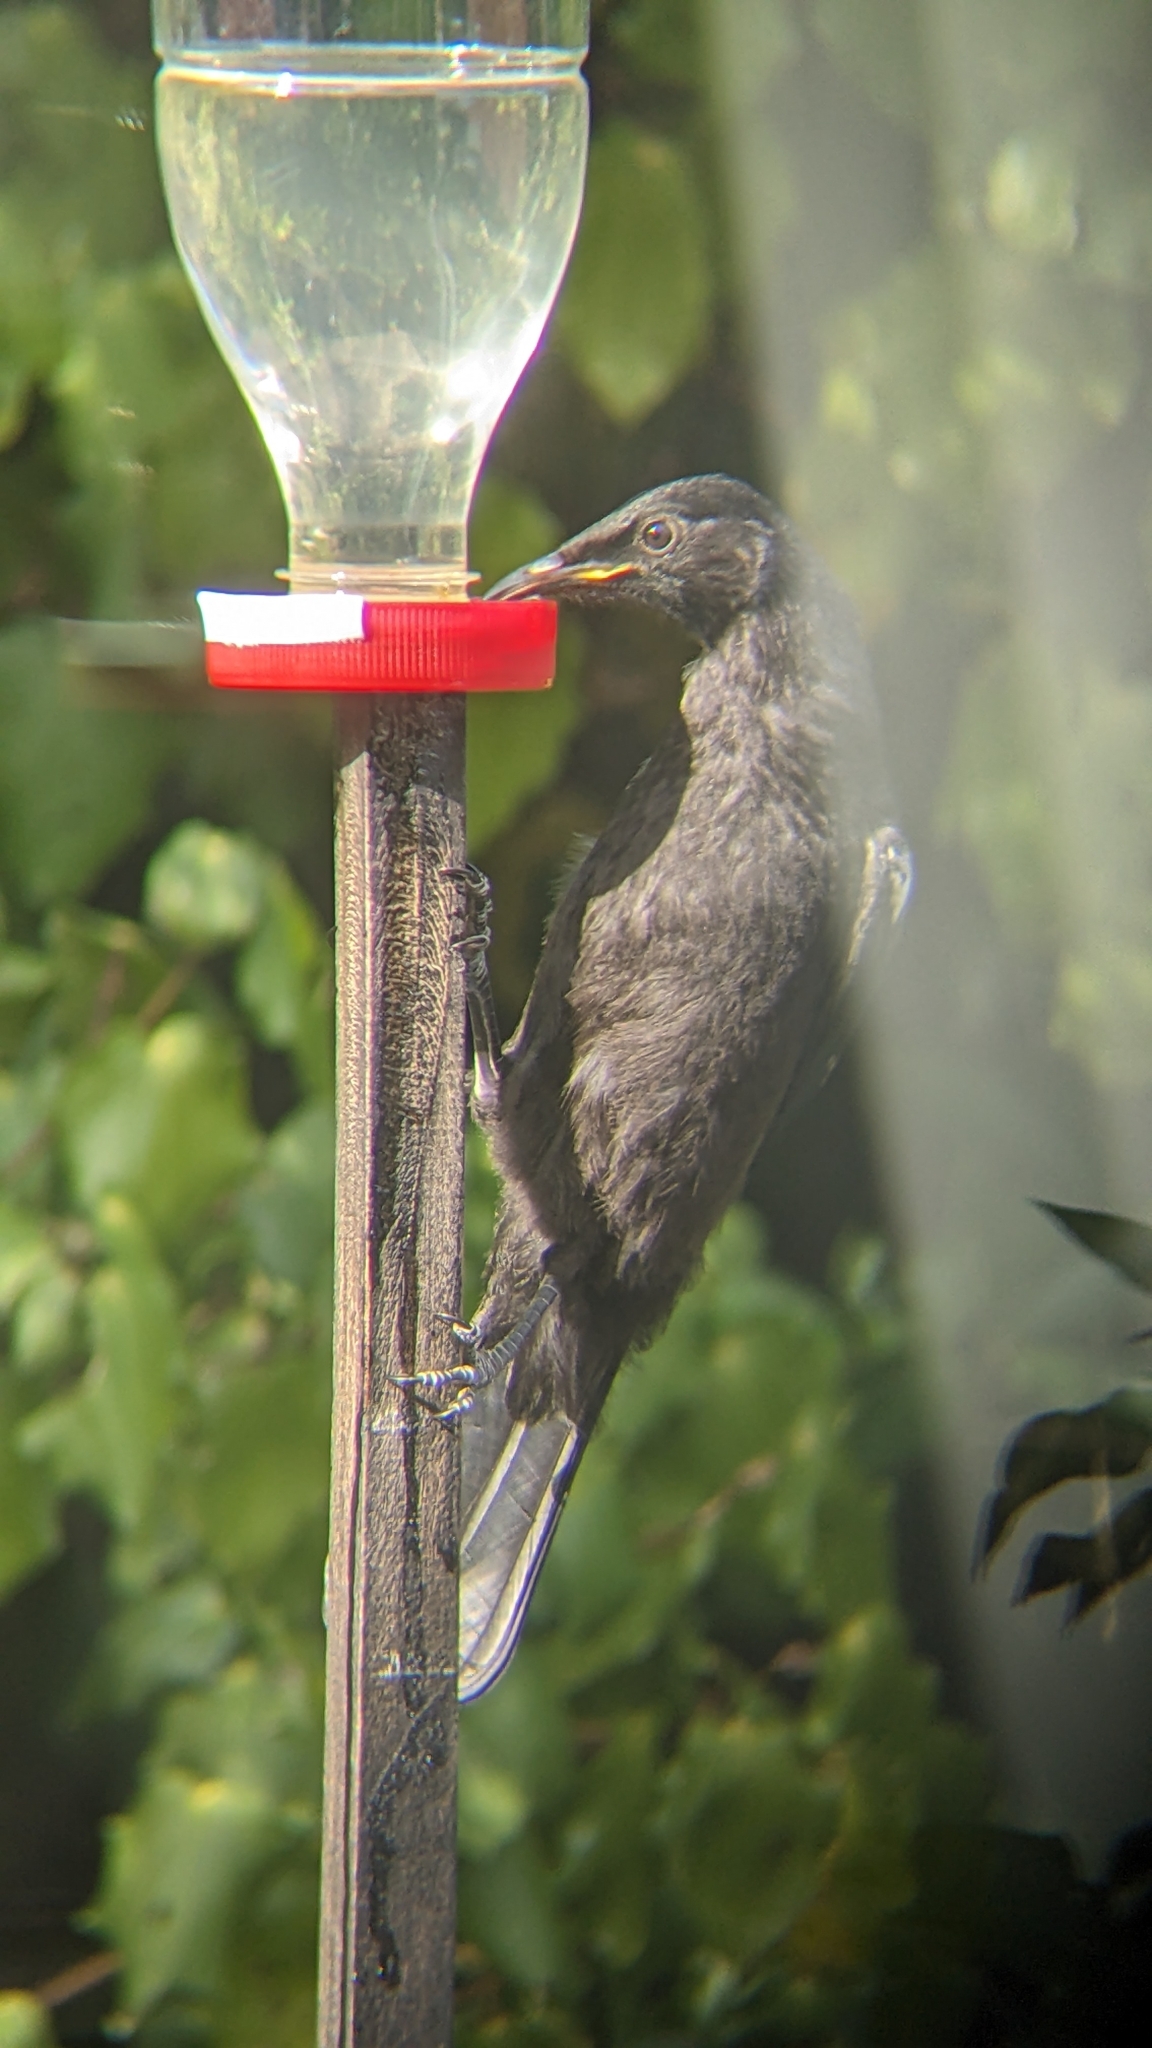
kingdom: Animalia
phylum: Chordata
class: Aves
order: Passeriformes
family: Meliphagidae
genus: Prosthemadera
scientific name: Prosthemadera novaeseelandiae
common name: Tui
